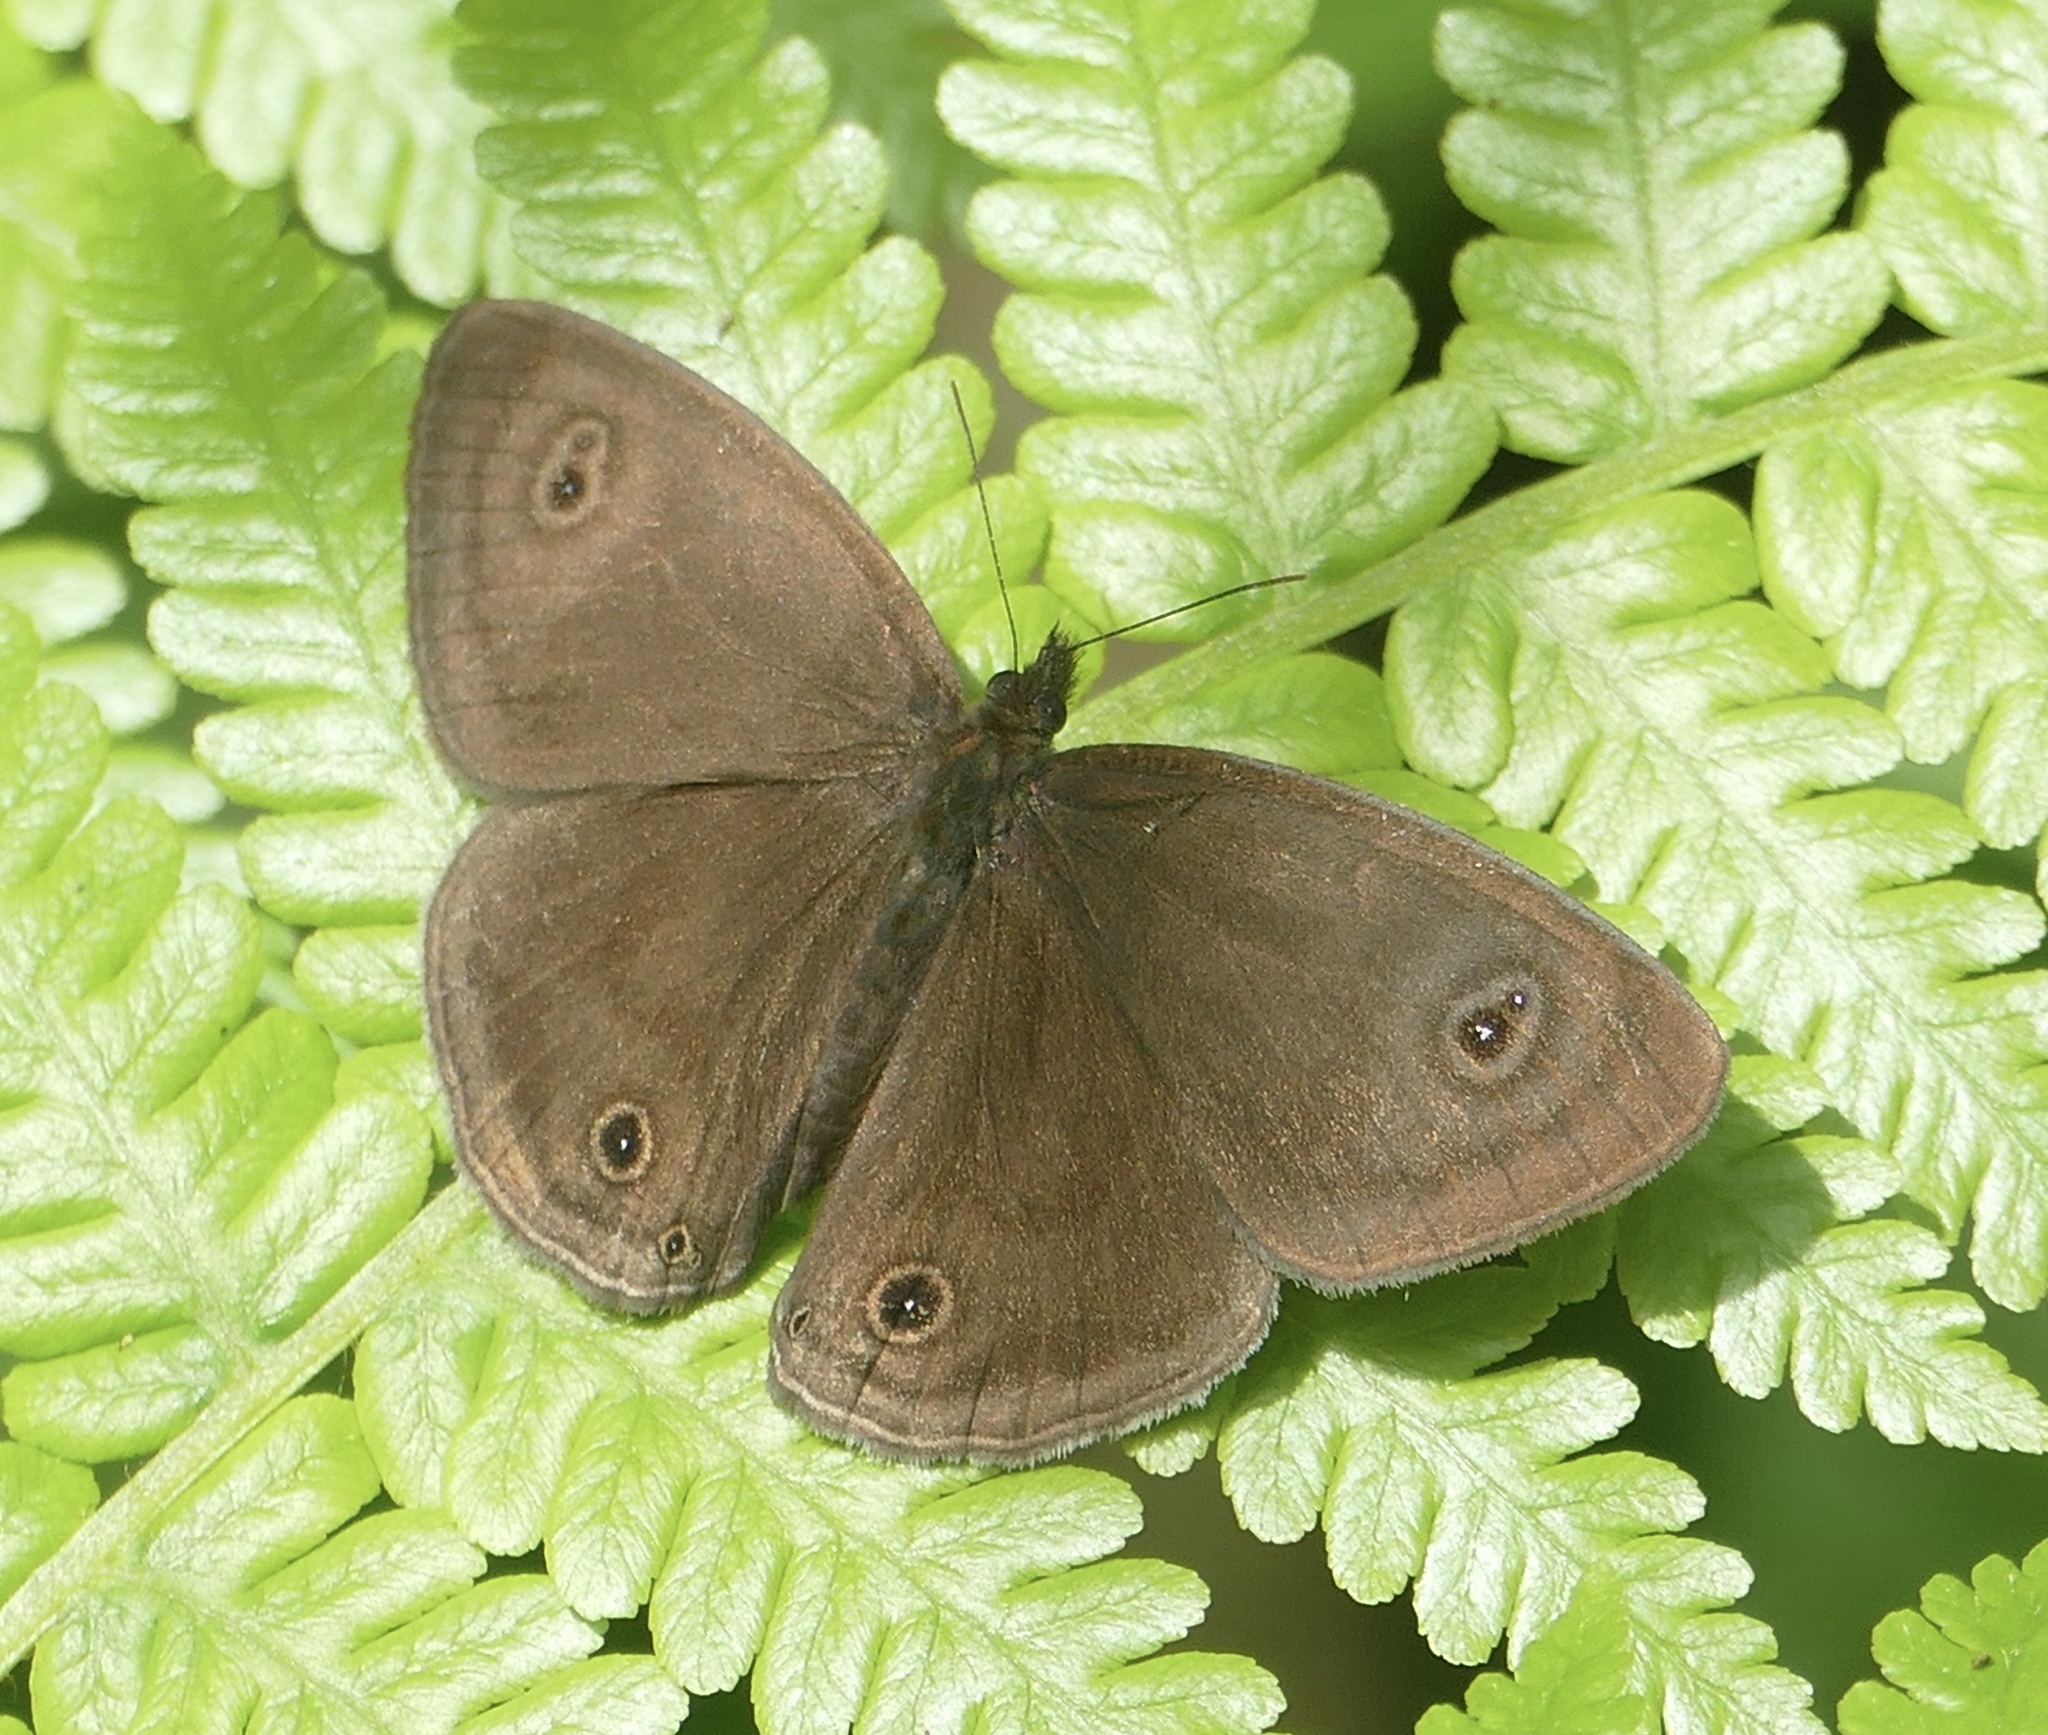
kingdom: Animalia
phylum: Arthropoda
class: Insecta
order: Lepidoptera
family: Nymphalidae
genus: Ypthima
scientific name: Ypthima nigricans
